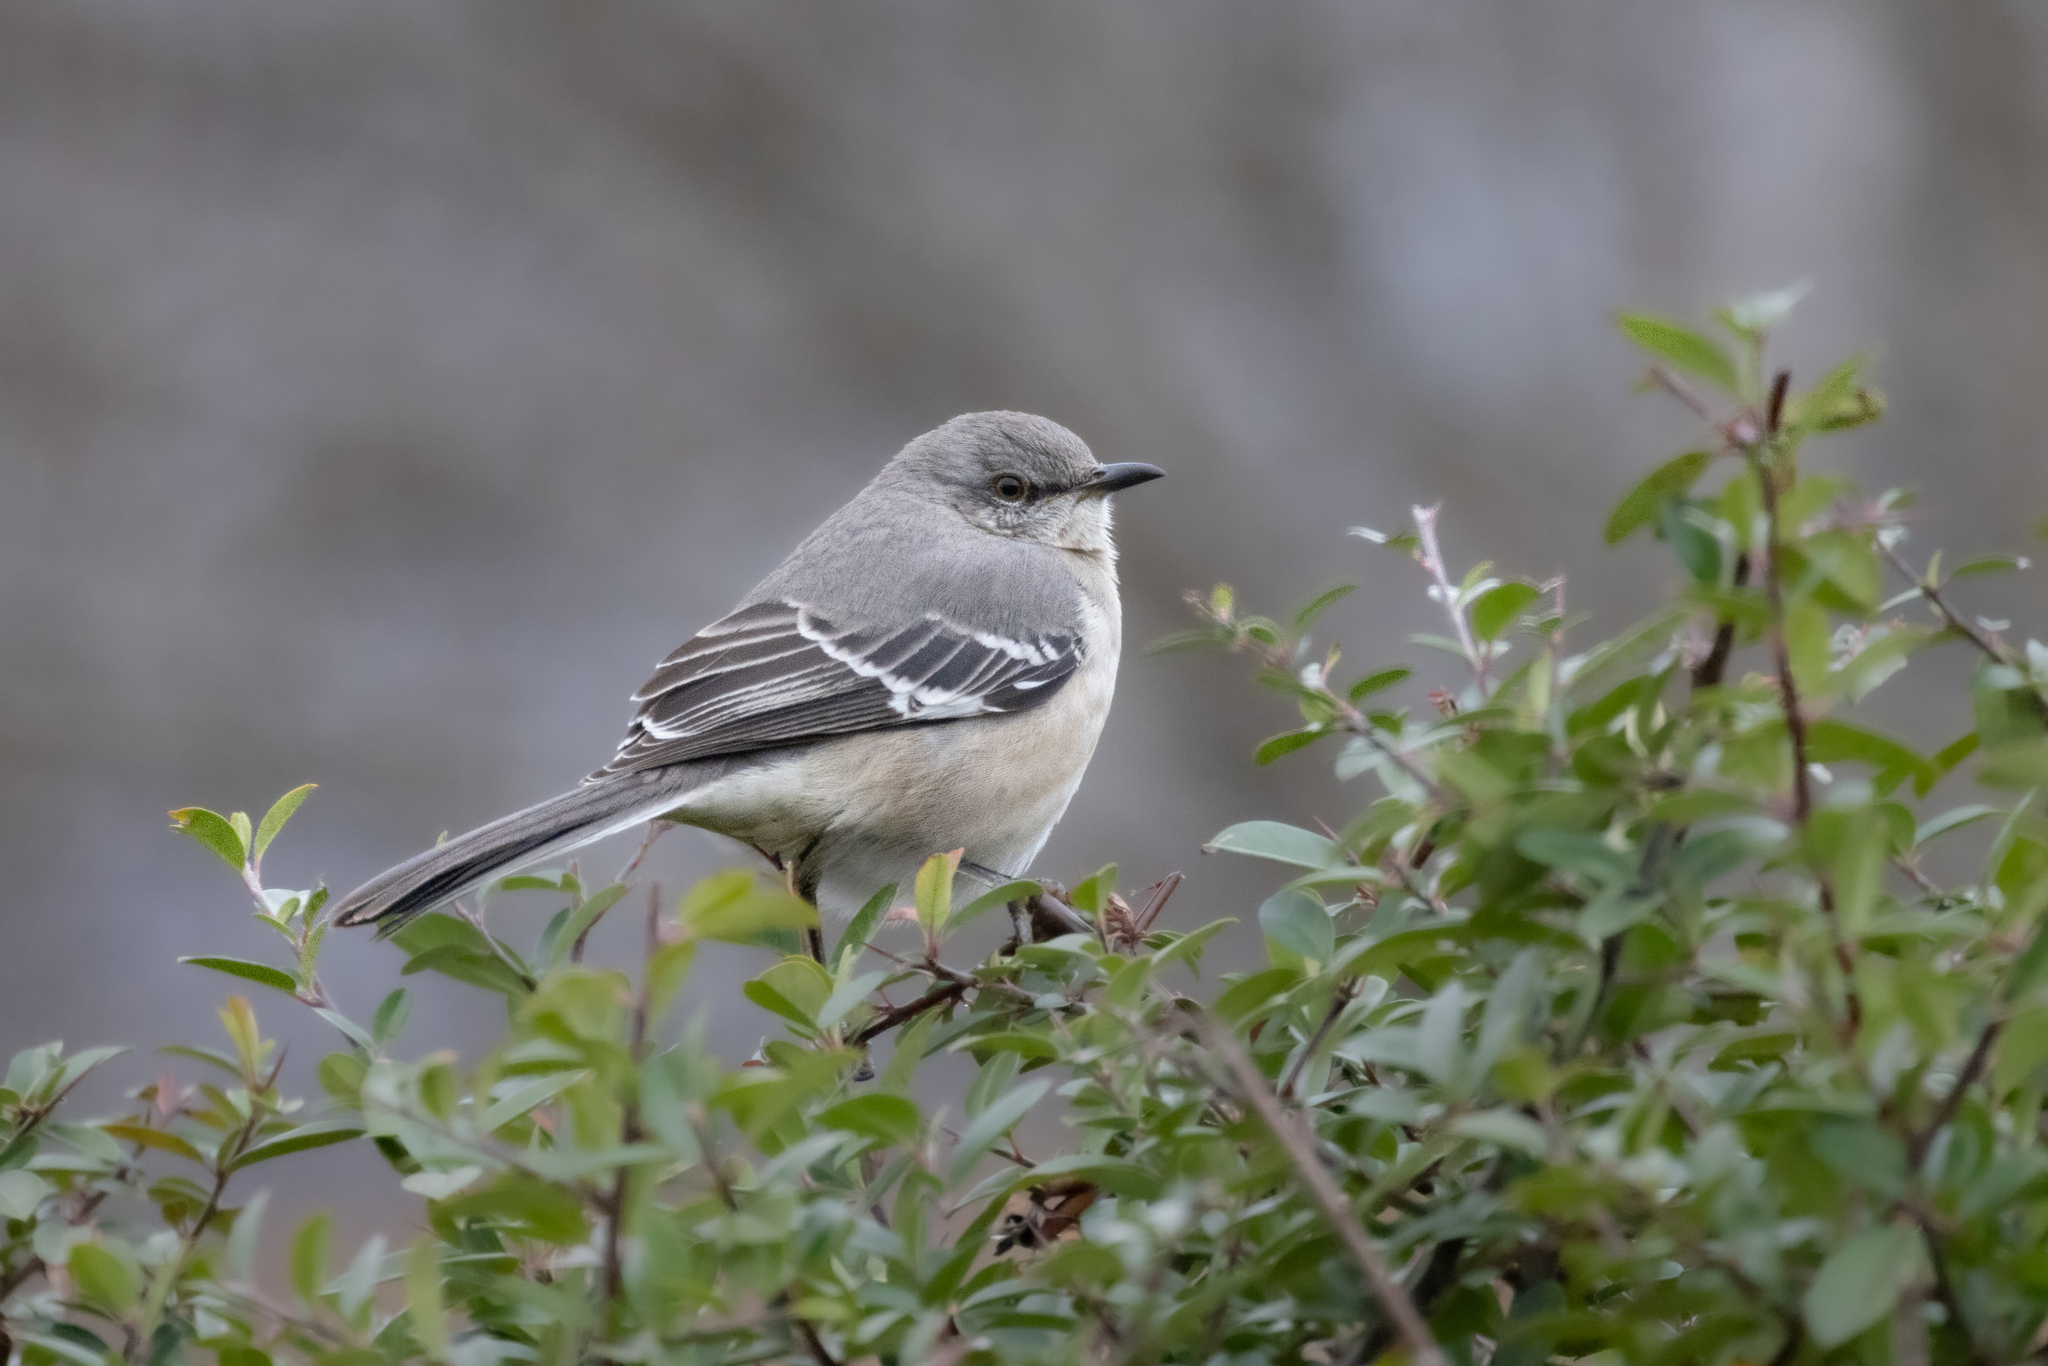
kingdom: Animalia
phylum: Chordata
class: Aves
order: Passeriformes
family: Mimidae
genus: Mimus
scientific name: Mimus polyglottos
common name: Northern mockingbird
